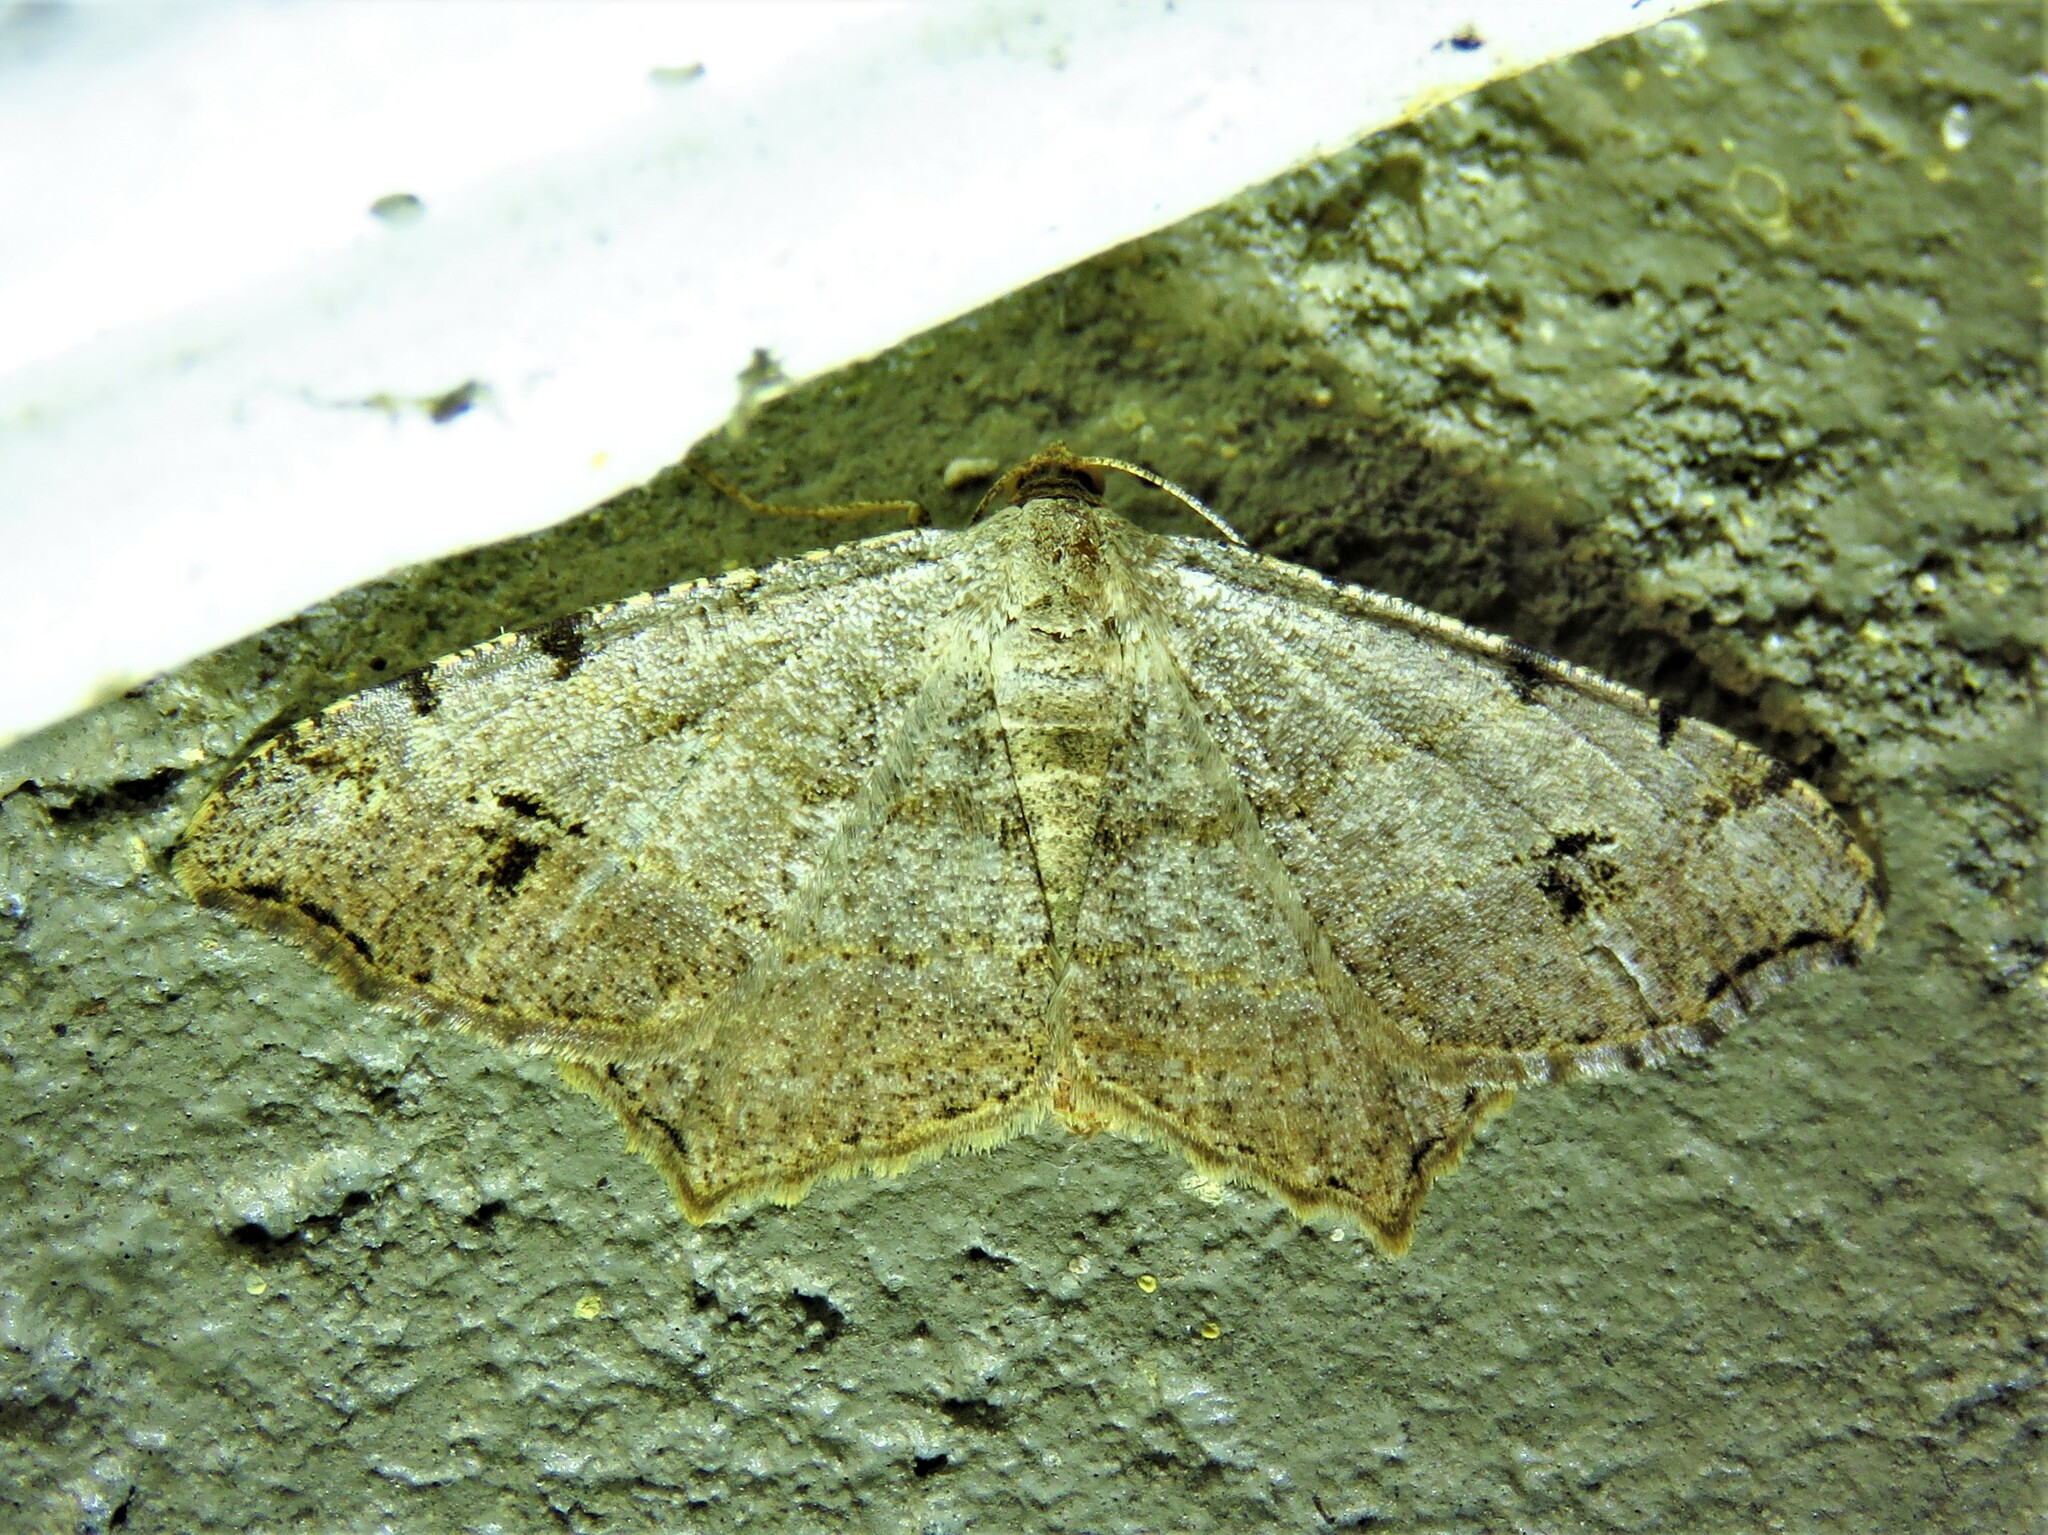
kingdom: Animalia
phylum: Arthropoda
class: Insecta
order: Lepidoptera
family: Geometridae
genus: Macaria
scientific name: Macaria aemulataria
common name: Common angle
